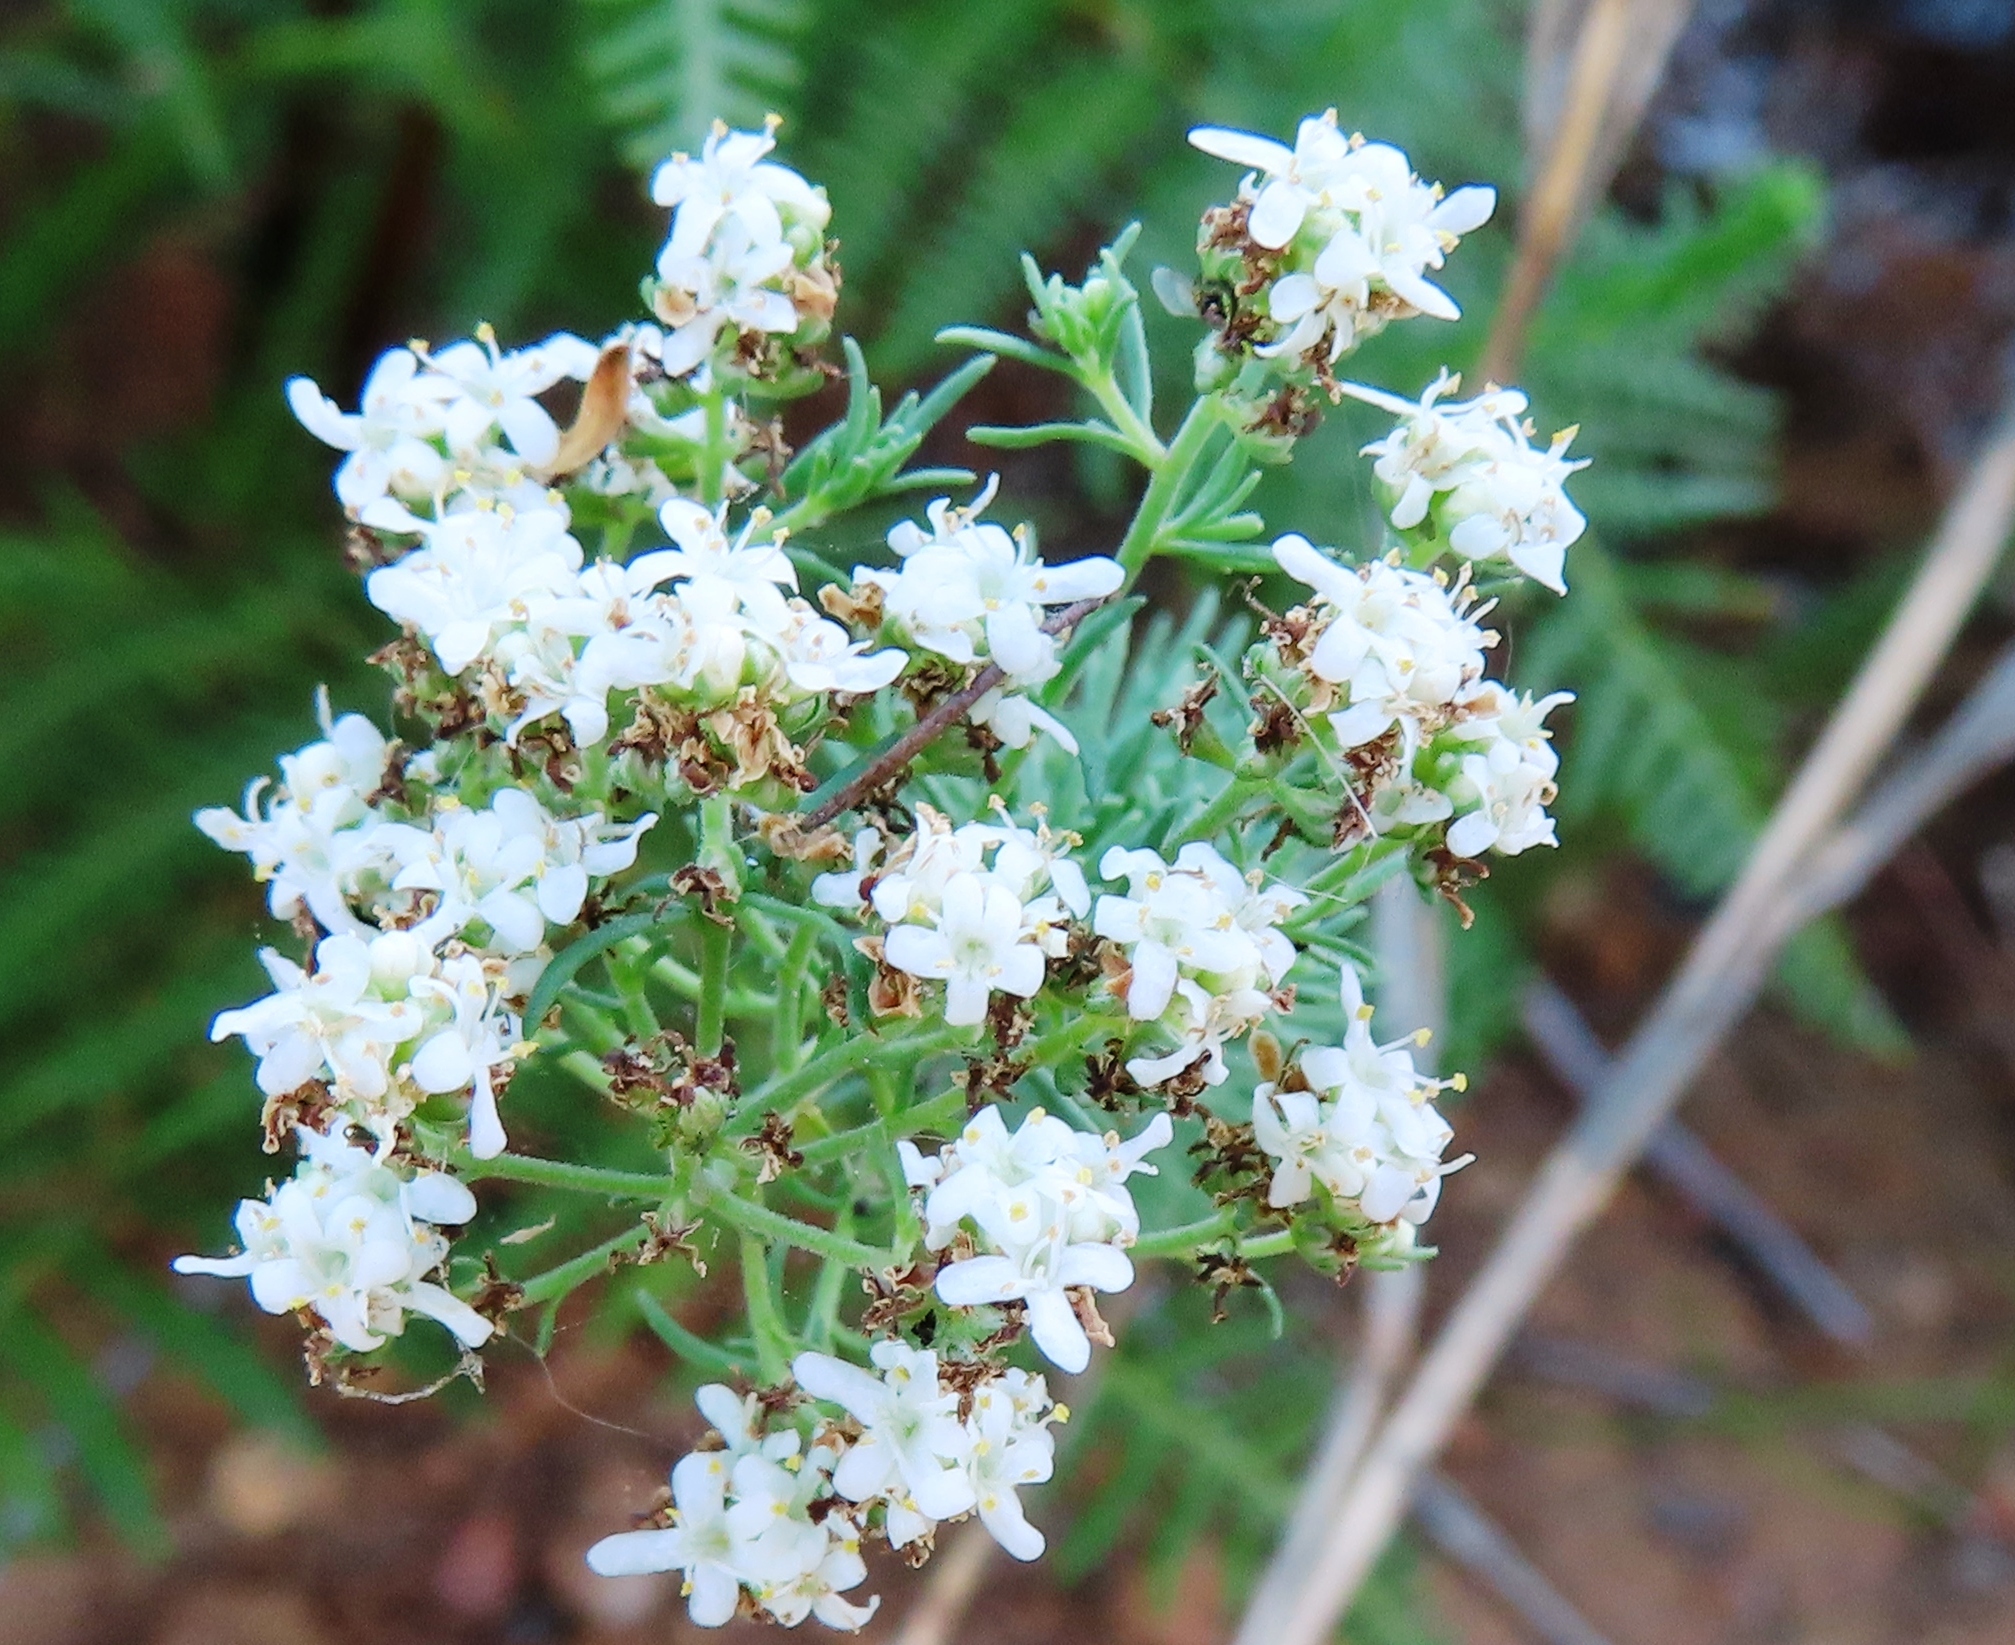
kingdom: Plantae
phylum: Tracheophyta
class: Magnoliopsida
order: Lamiales
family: Scrophulariaceae
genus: Selago
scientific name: Selago corymbosa
